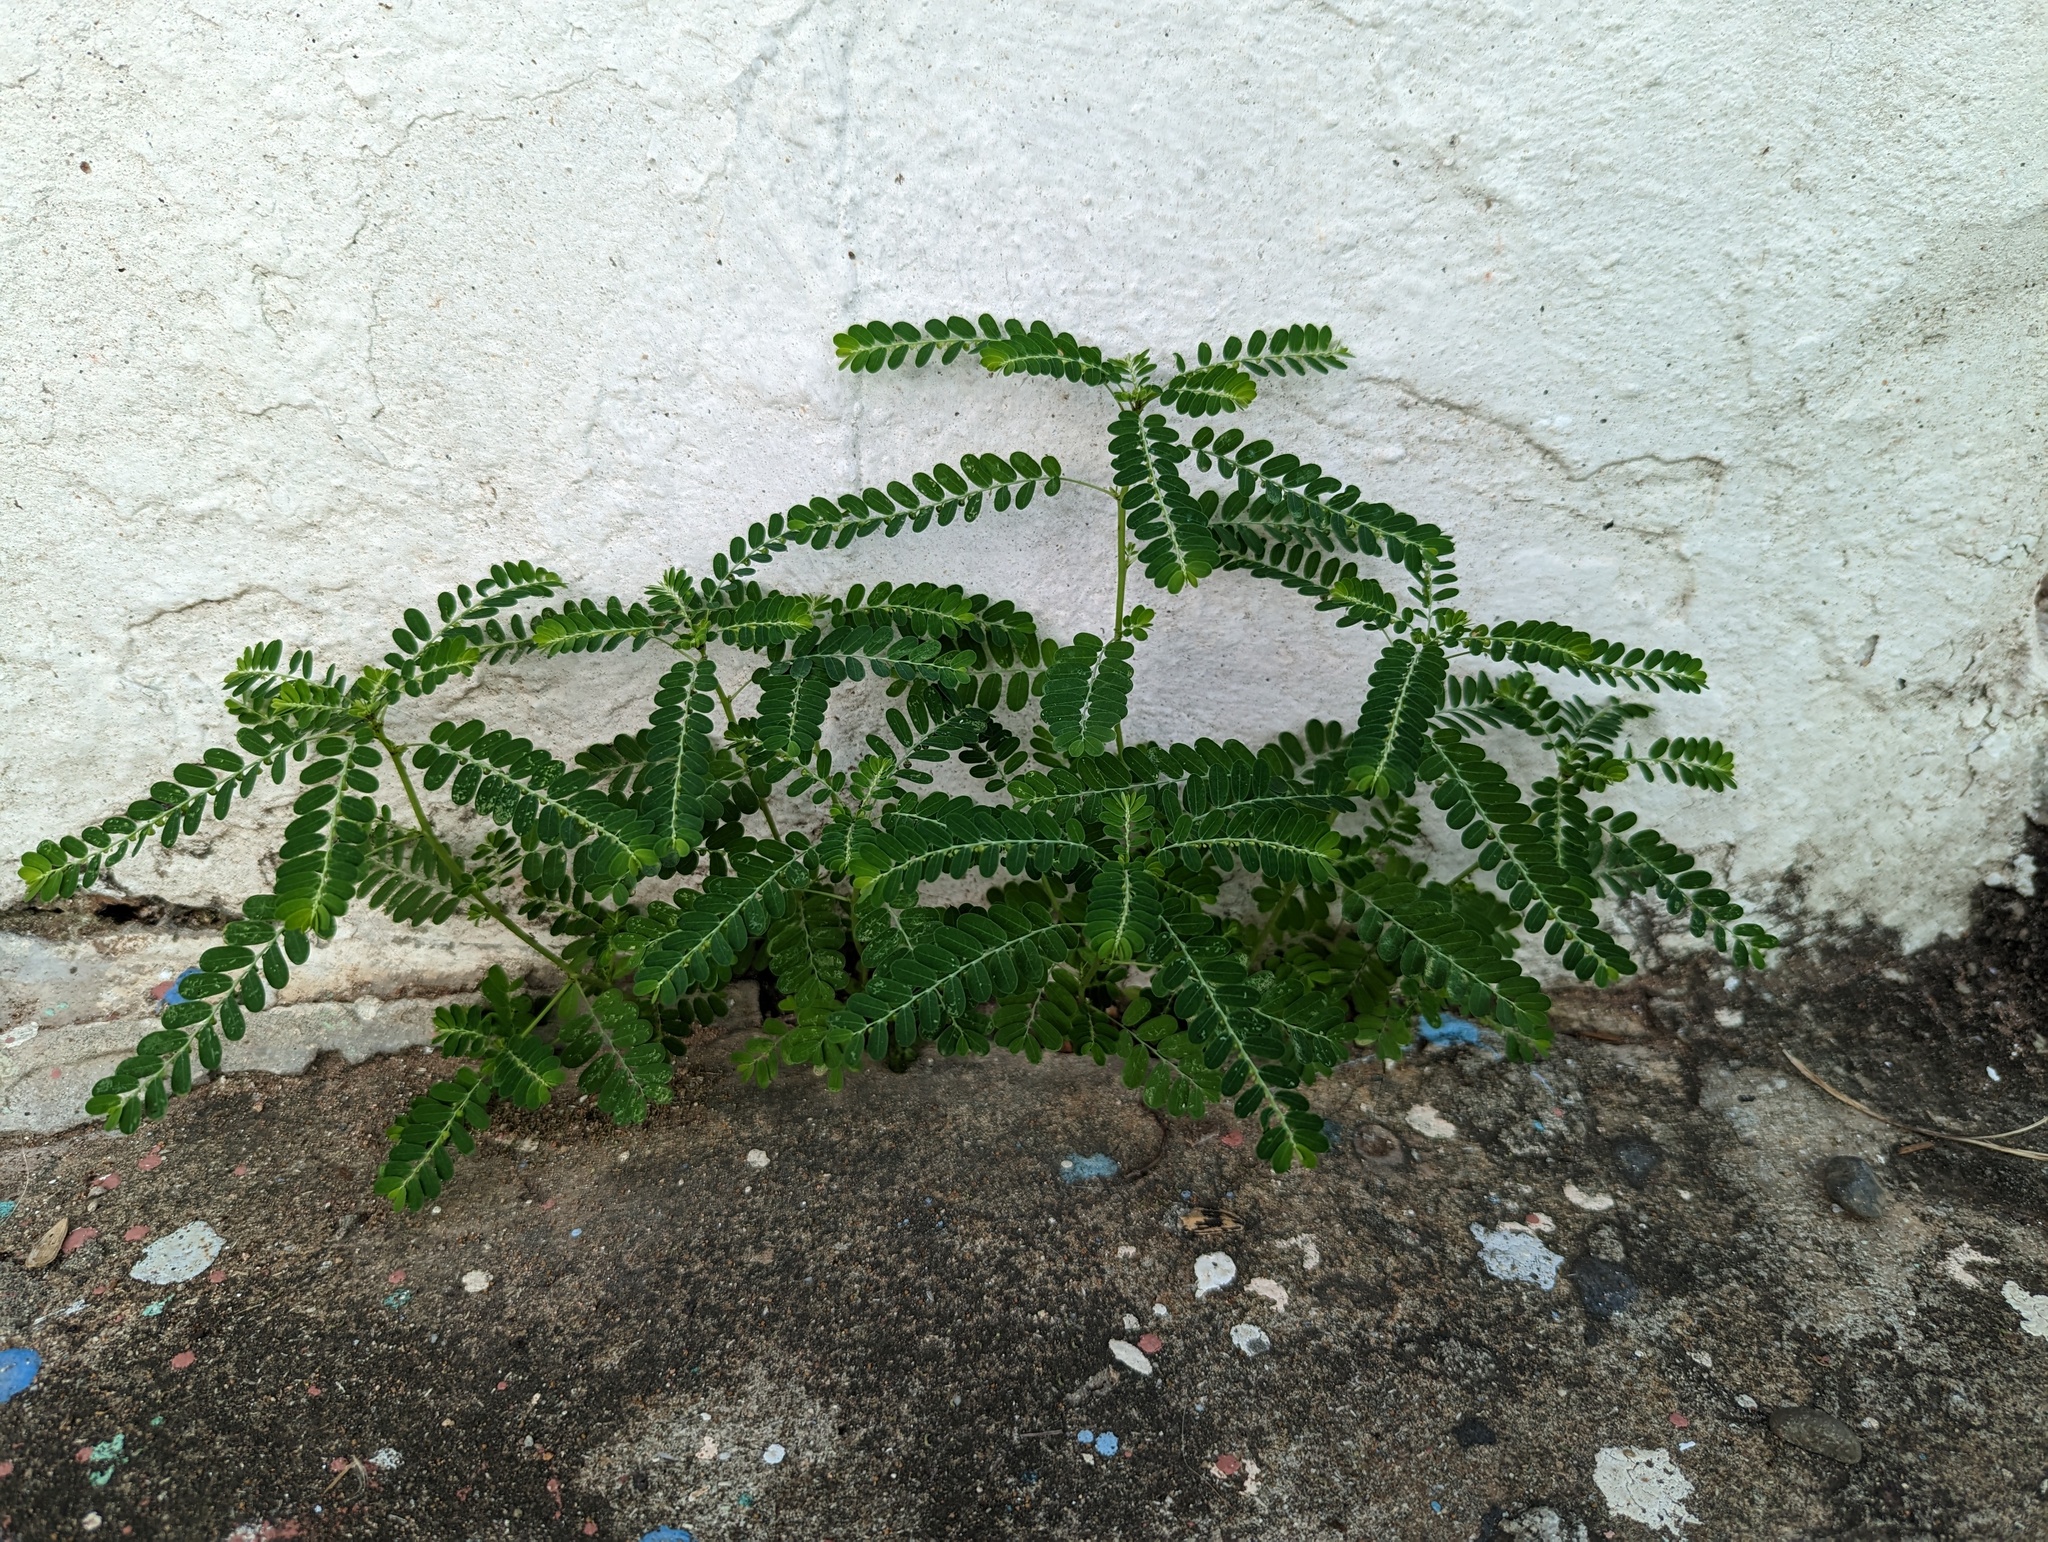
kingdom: Plantae
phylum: Tracheophyta
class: Magnoliopsida
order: Malpighiales
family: Phyllanthaceae
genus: Phyllanthus
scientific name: Phyllanthus amarus
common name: Carry me seed
